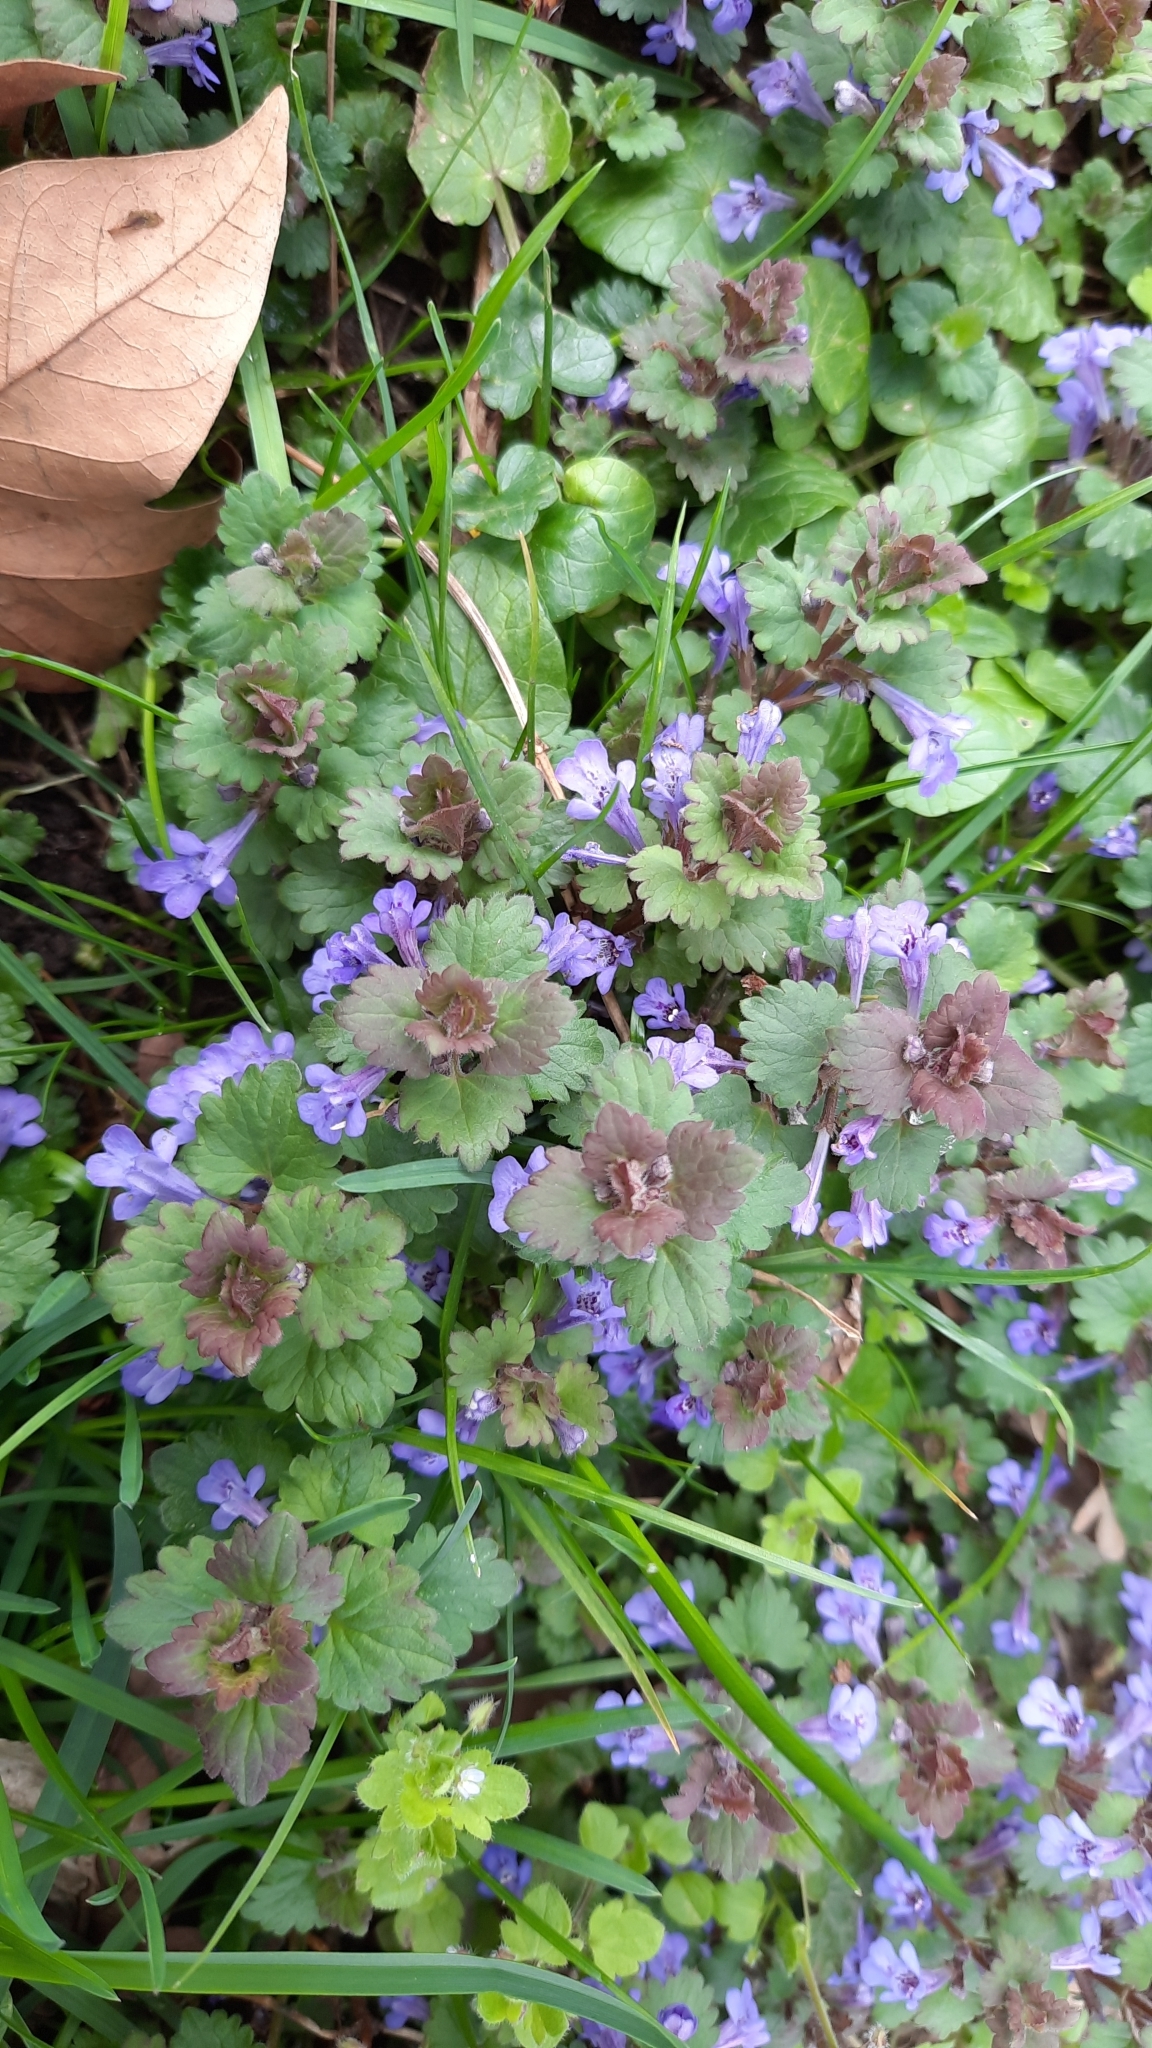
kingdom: Plantae
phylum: Tracheophyta
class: Magnoliopsida
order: Lamiales
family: Lamiaceae
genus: Glechoma
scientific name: Glechoma hederacea
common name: Ground ivy
